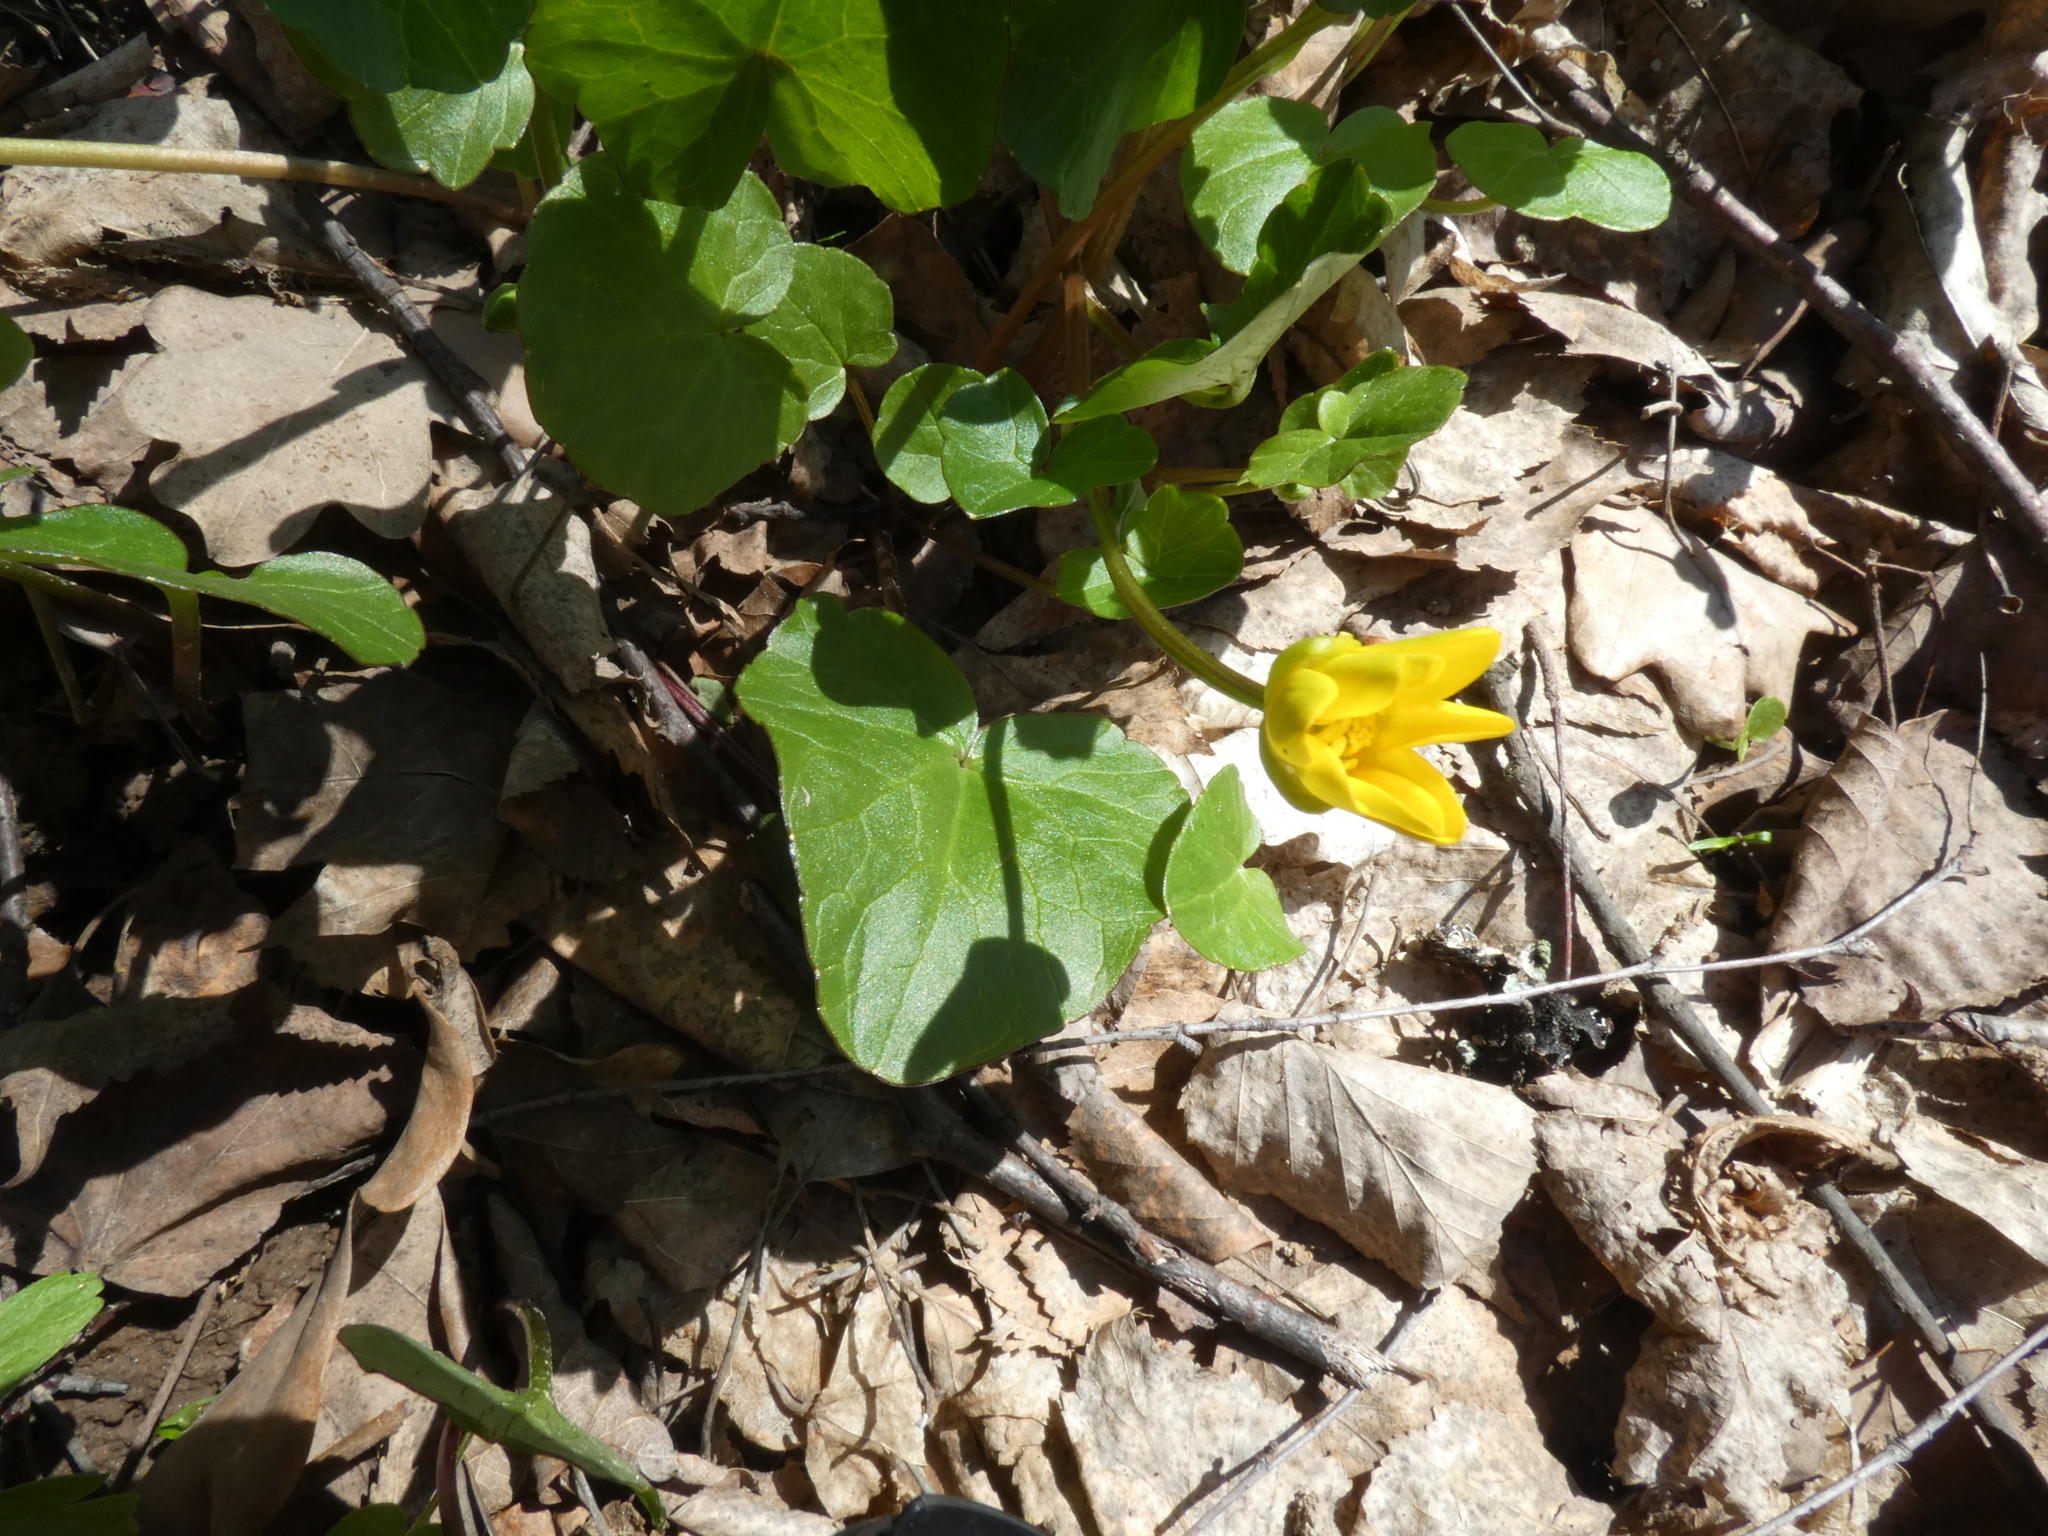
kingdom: Plantae
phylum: Tracheophyta
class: Magnoliopsida
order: Ranunculales
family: Ranunculaceae
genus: Ficaria
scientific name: Ficaria verna
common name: Lesser celandine
